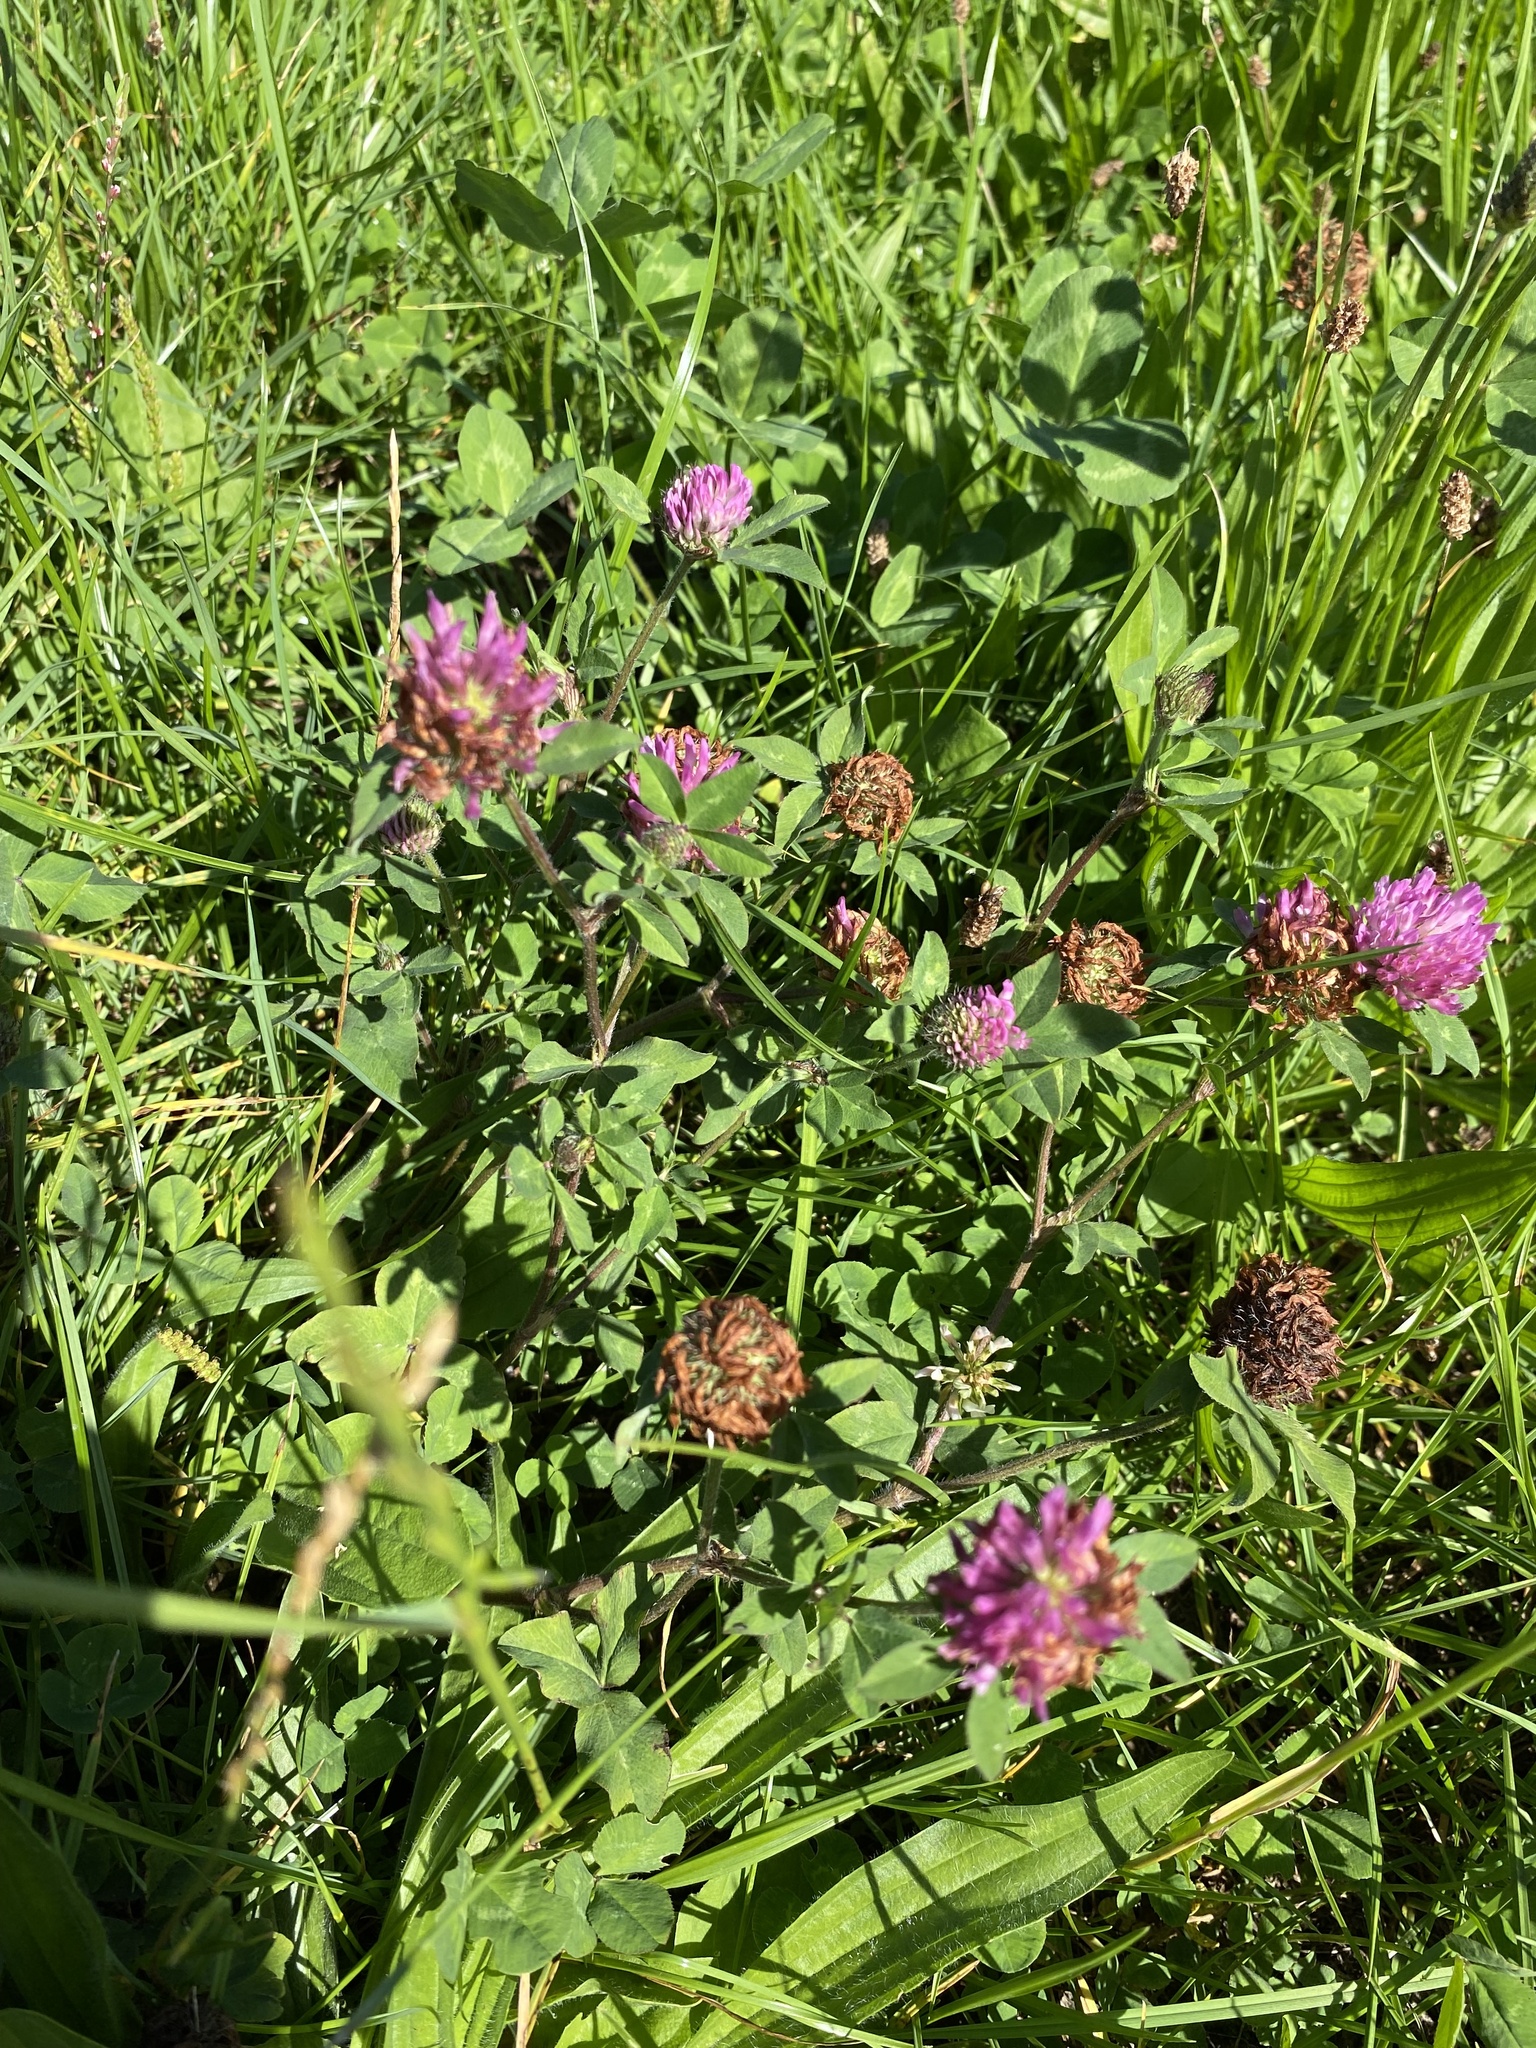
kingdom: Plantae
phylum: Tracheophyta
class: Magnoliopsida
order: Fabales
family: Fabaceae
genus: Trifolium
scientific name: Trifolium pratense
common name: Red clover
